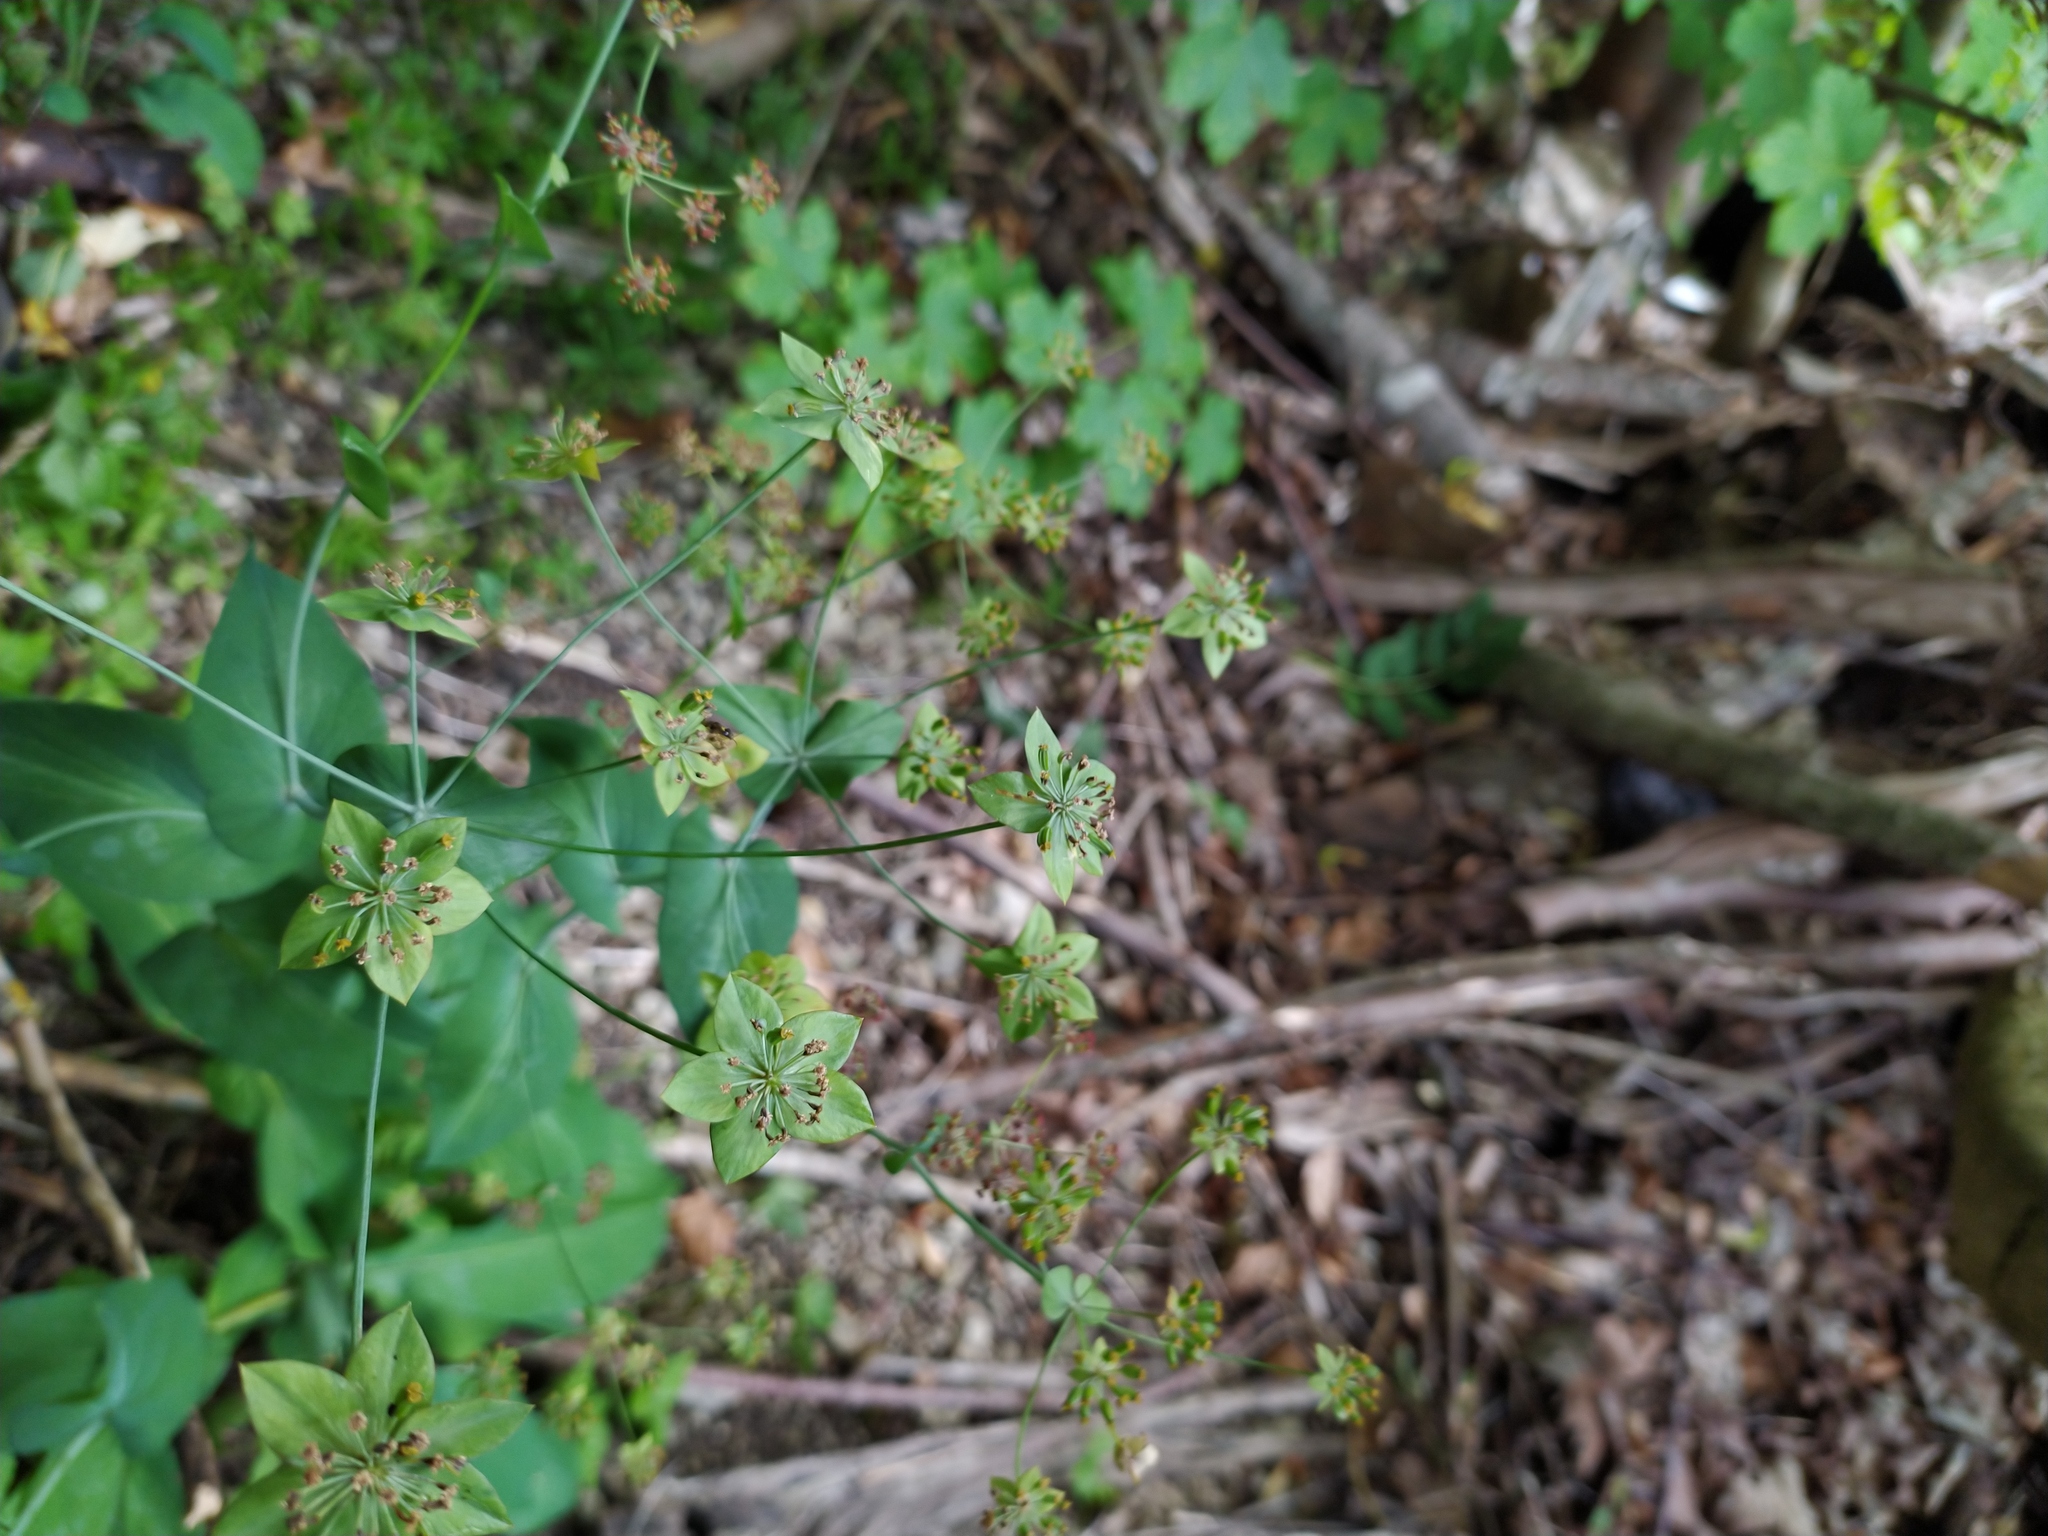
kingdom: Plantae
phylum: Tracheophyta
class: Magnoliopsida
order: Apiales
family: Apiaceae
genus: Bupleurum
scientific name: Bupleurum longifolium
